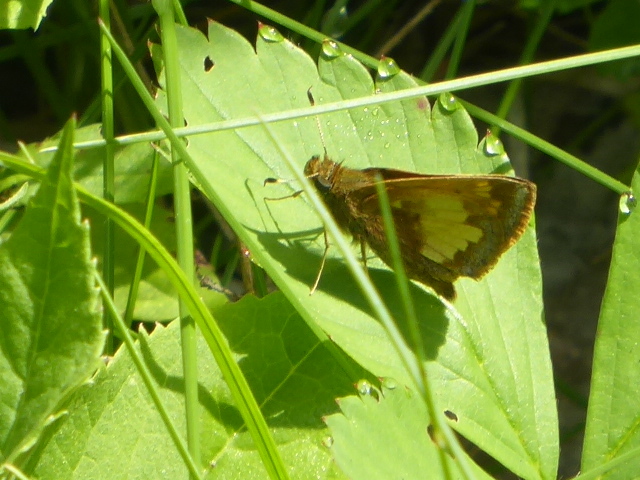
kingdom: Animalia
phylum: Arthropoda
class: Insecta
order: Lepidoptera
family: Hesperiidae
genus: Lon
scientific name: Lon hobomok
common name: Hobomok skipper
